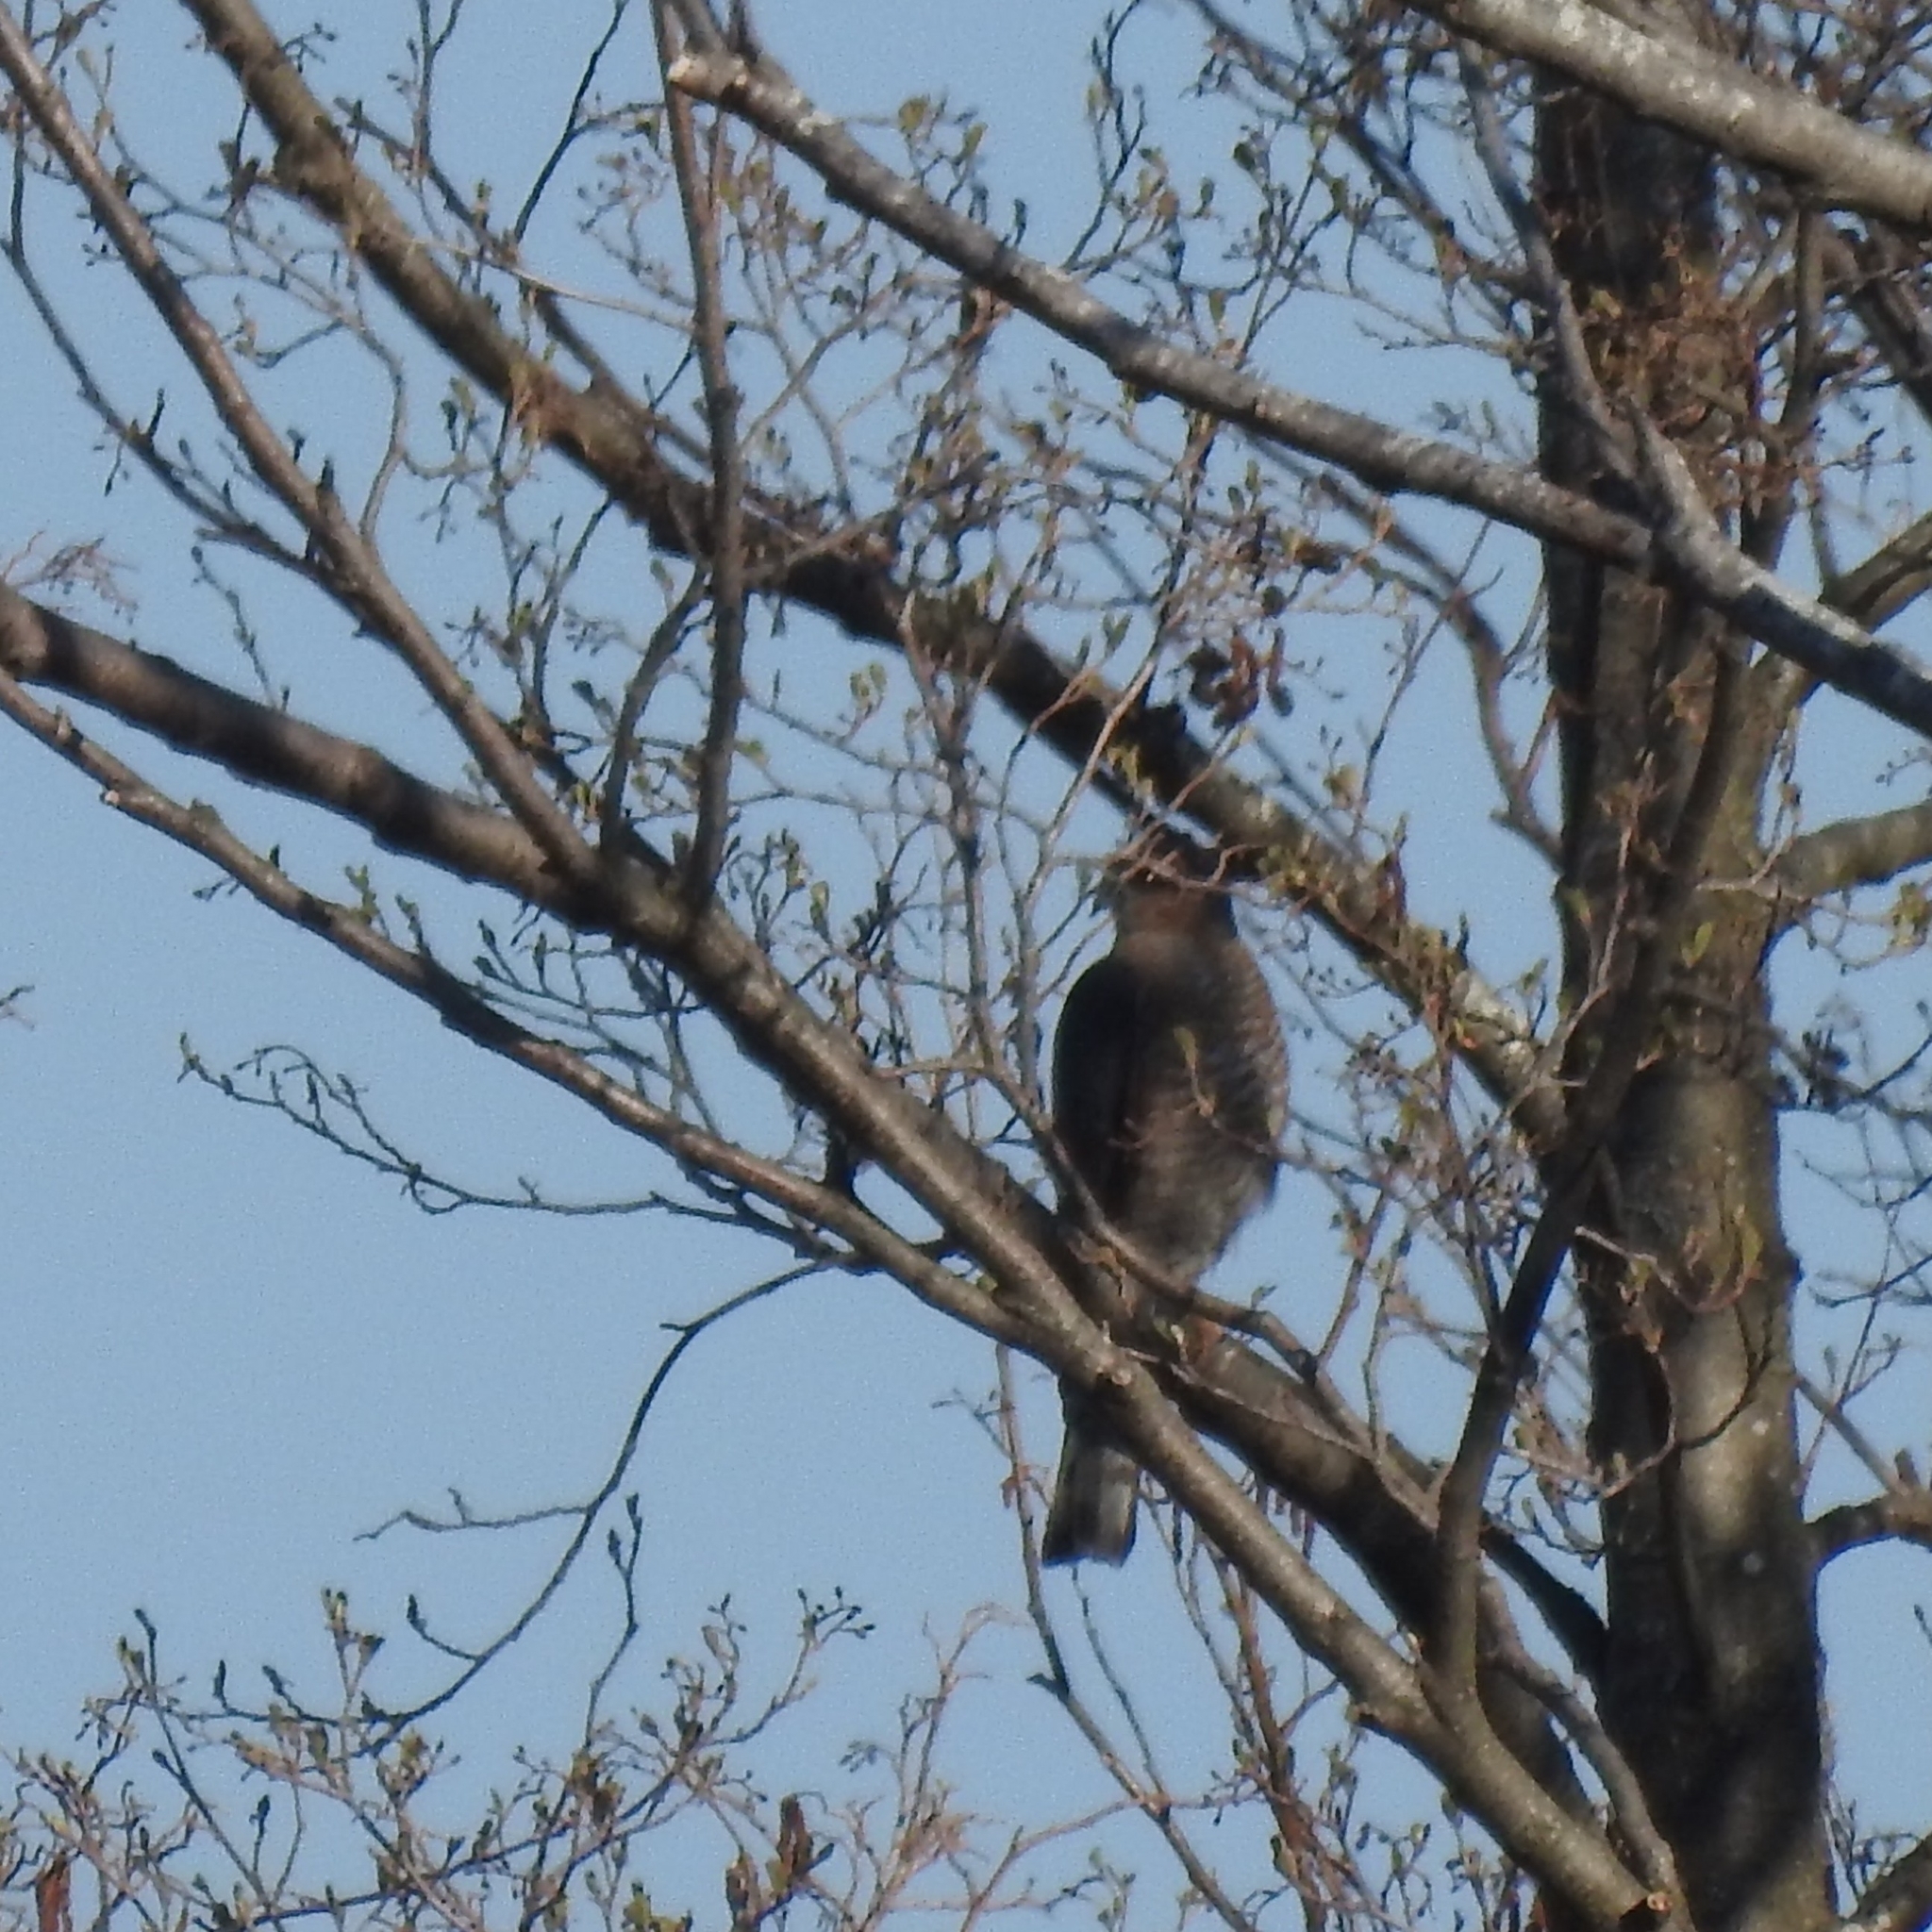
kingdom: Animalia
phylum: Chordata
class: Aves
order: Accipitriformes
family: Accipitridae
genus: Accipiter
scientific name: Accipiter nisus
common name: Eurasian sparrowhawk
